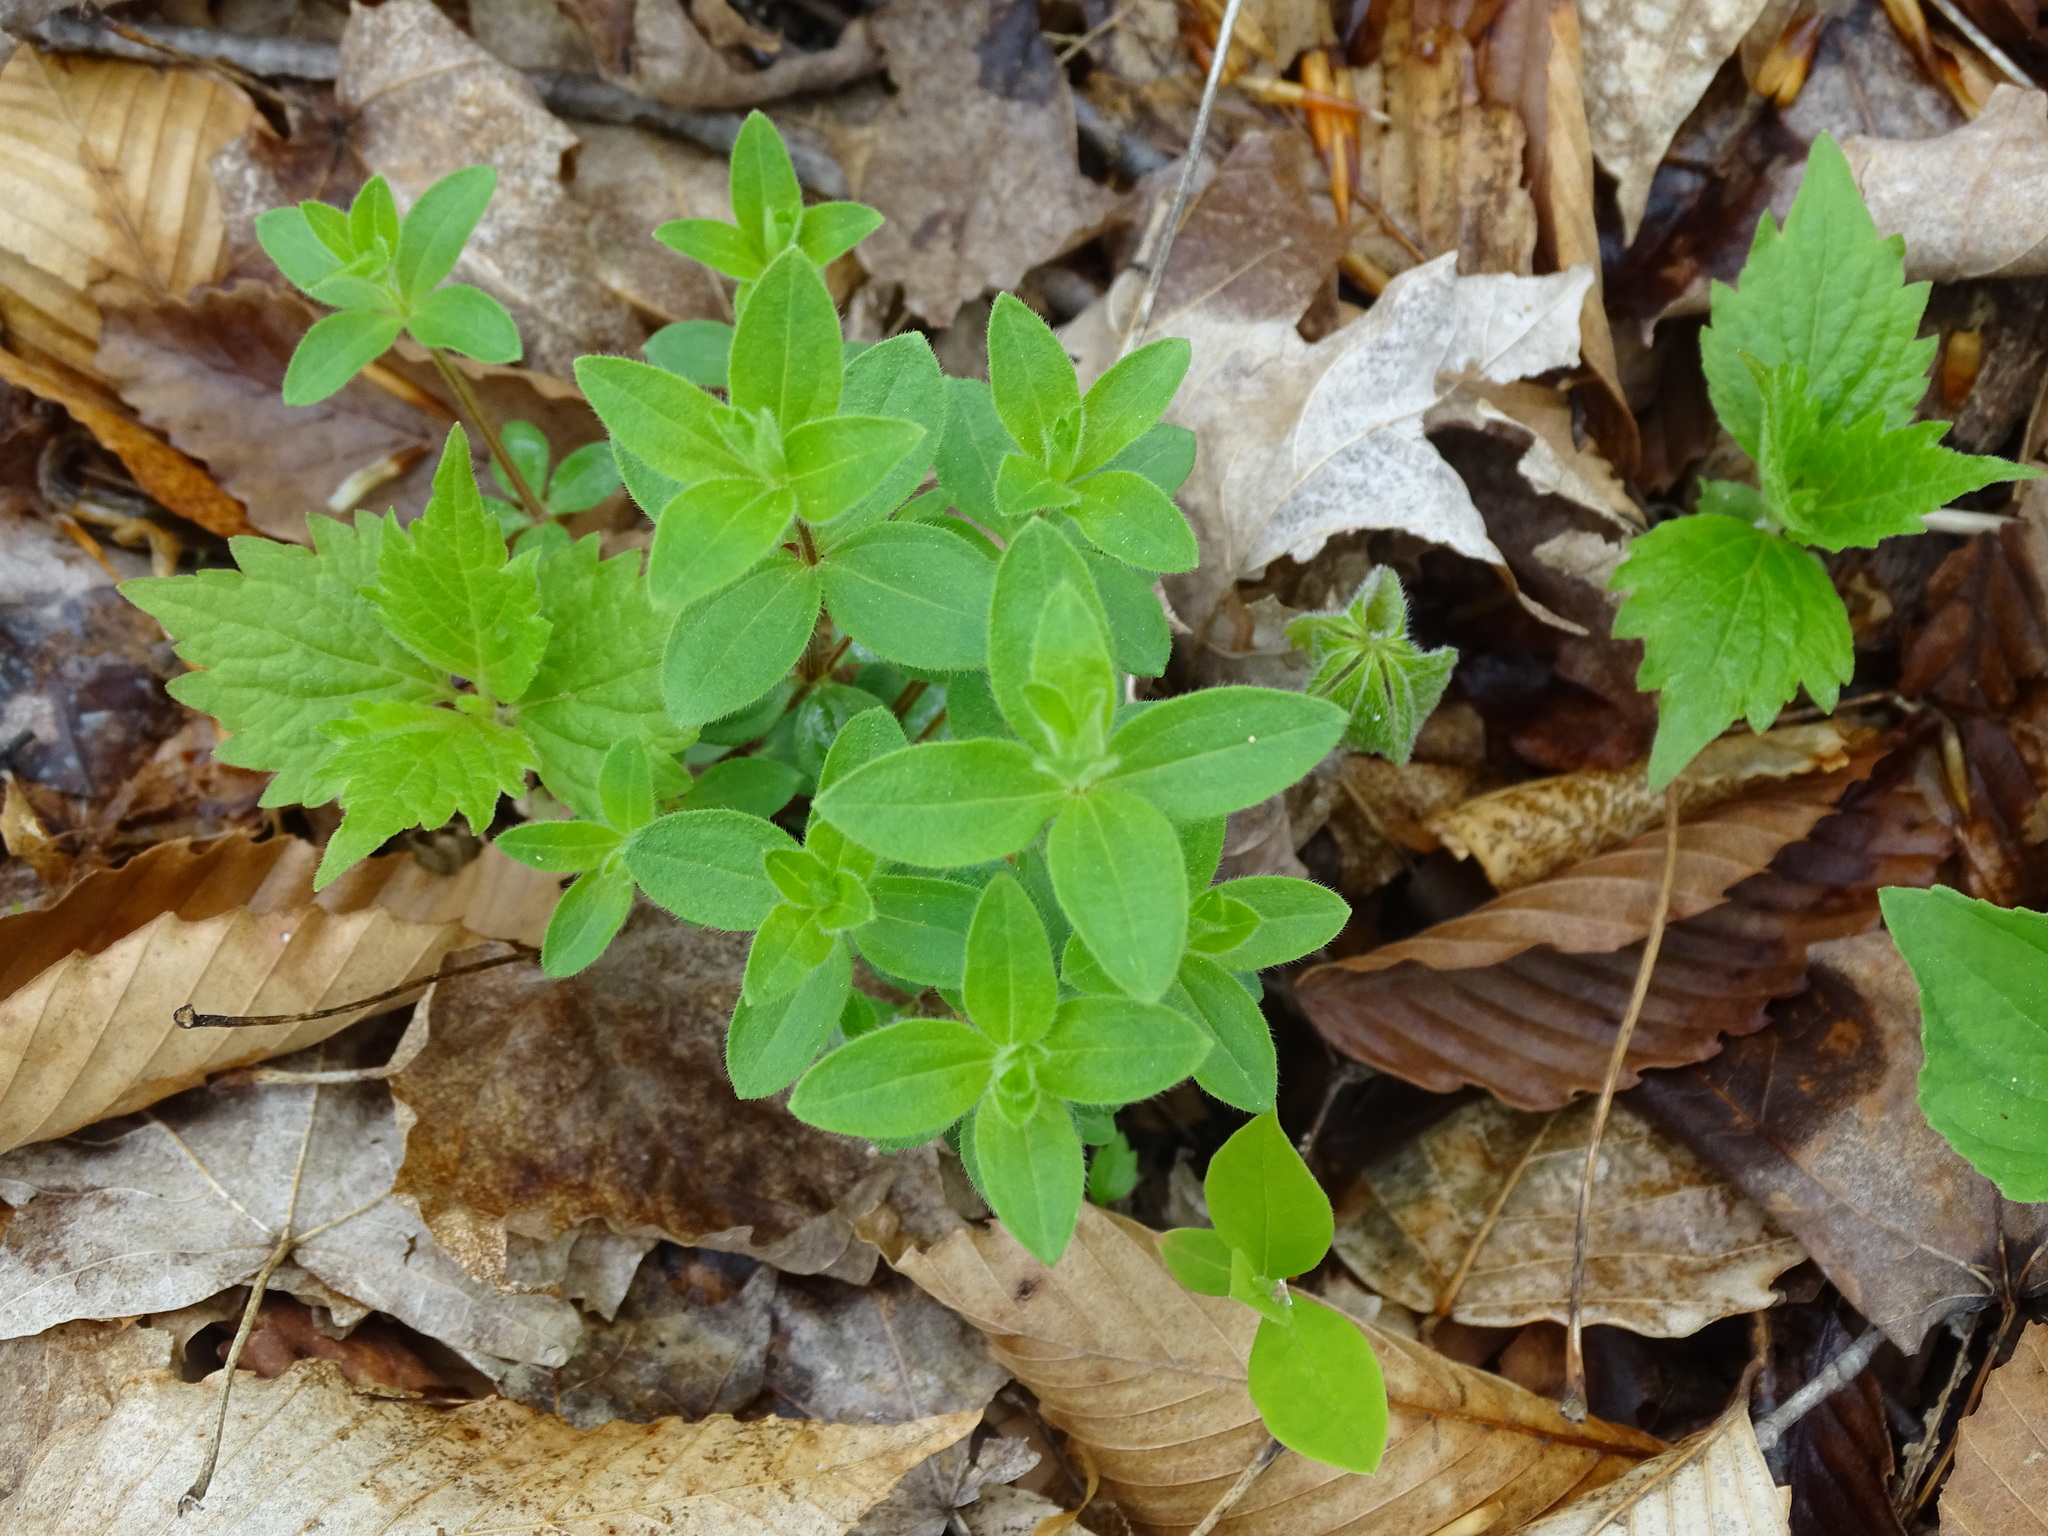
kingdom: Plantae
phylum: Tracheophyta
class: Magnoliopsida
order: Gentianales
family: Rubiaceae
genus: Galium
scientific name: Galium circaezans
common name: Forest bedstraw
